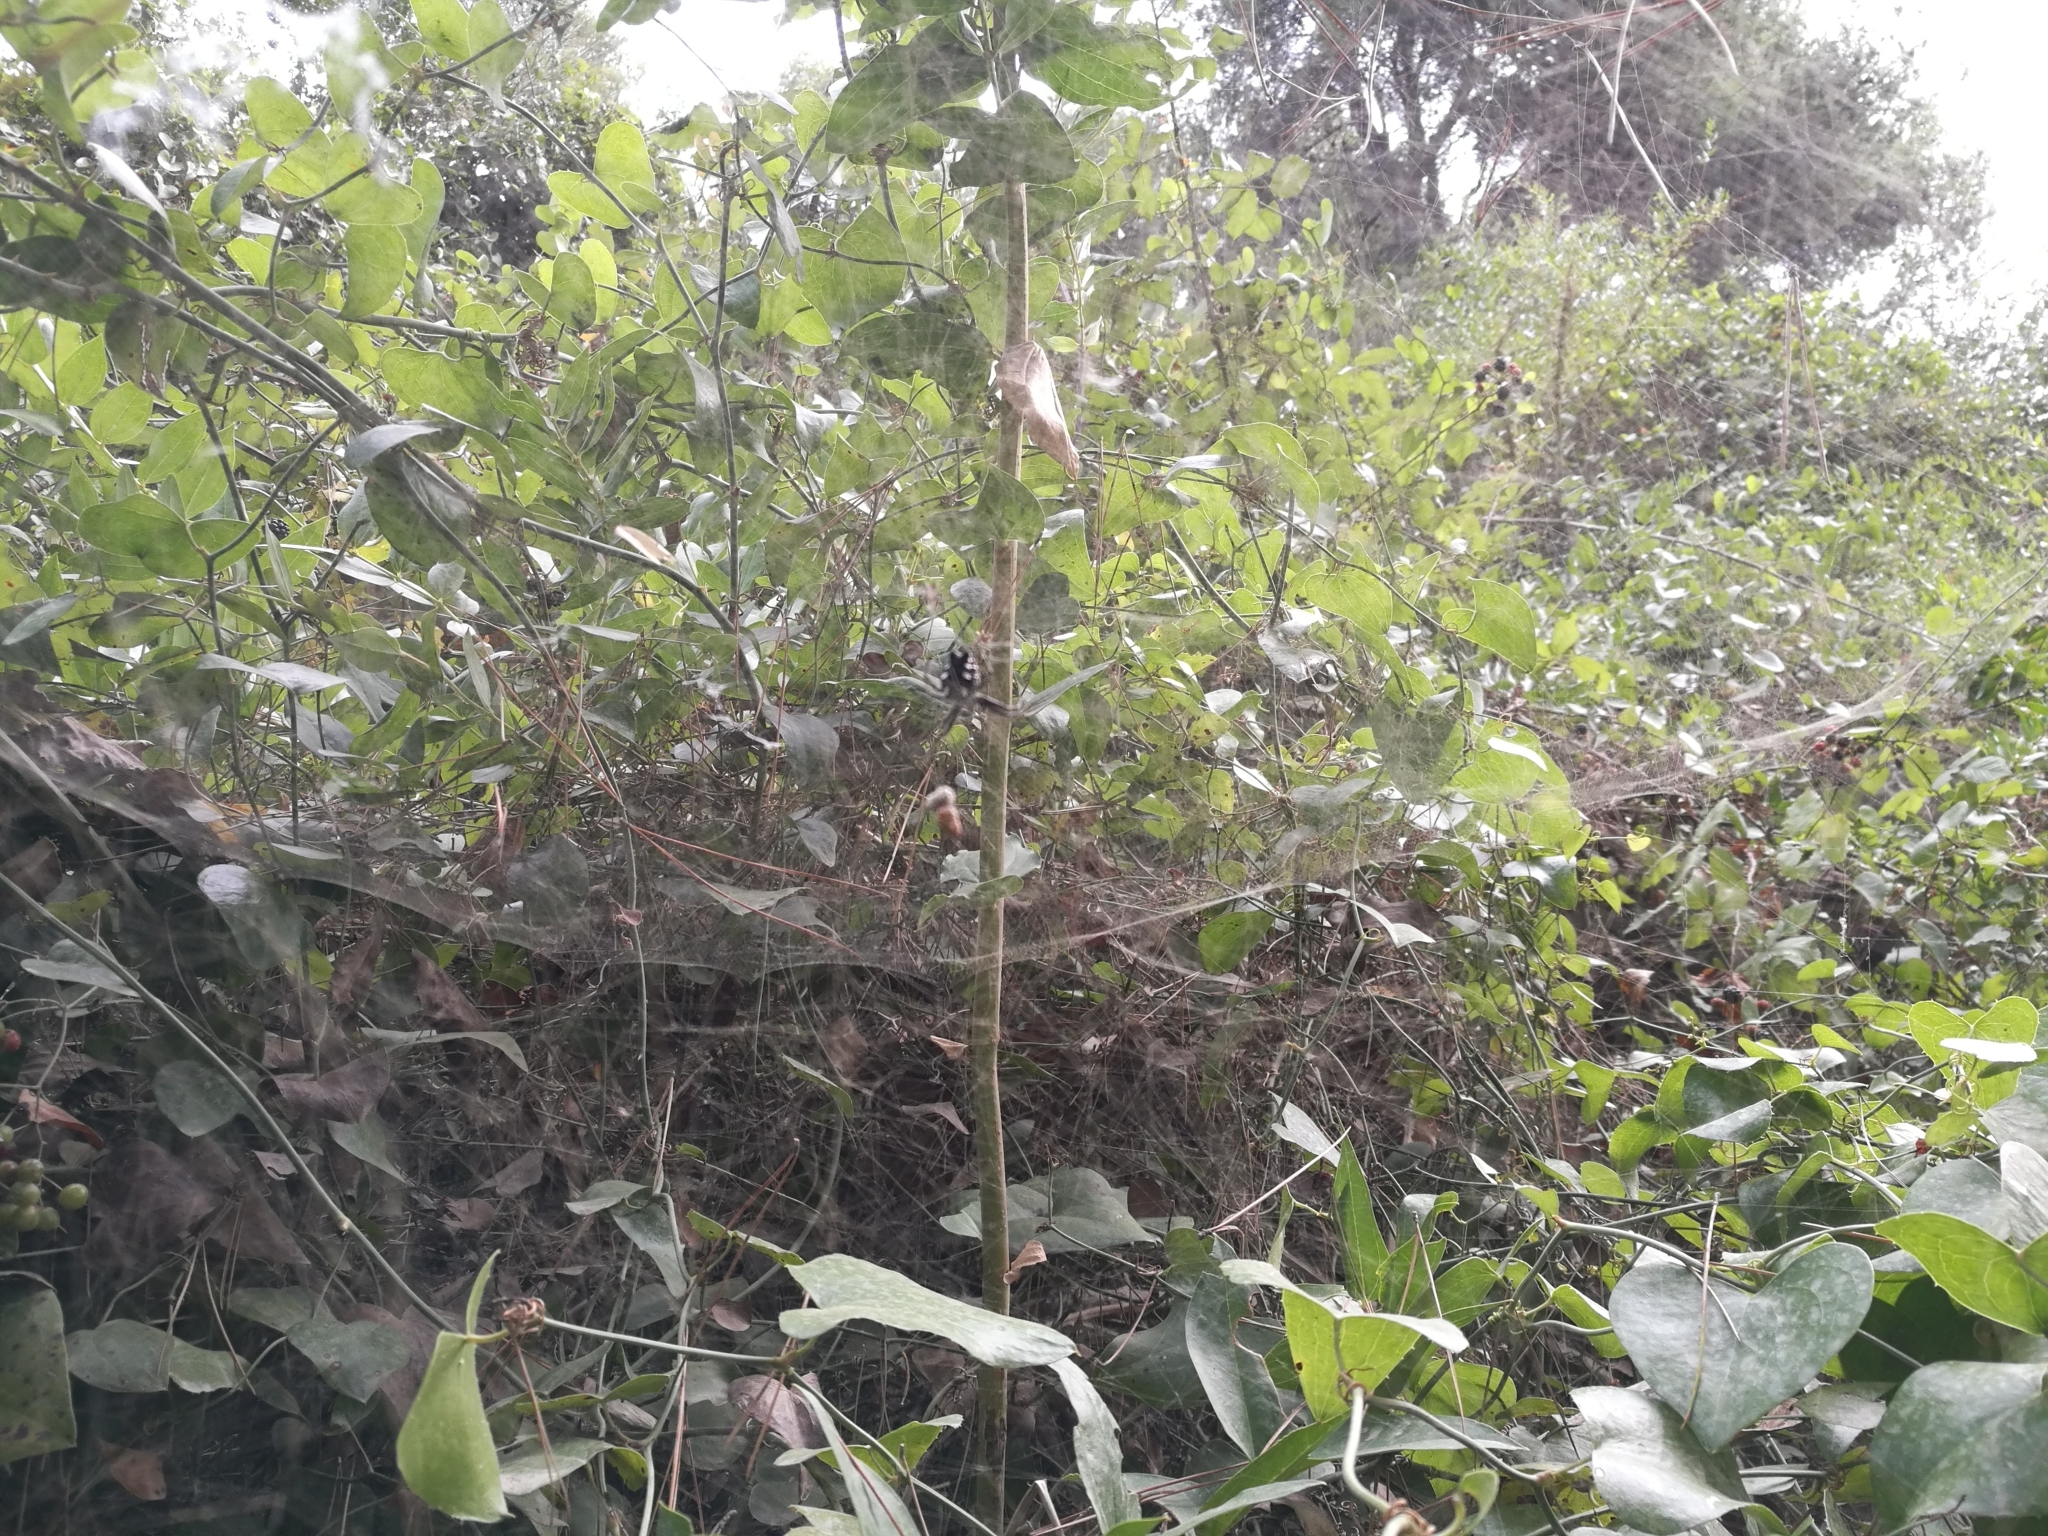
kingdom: Animalia
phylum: Arthropoda
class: Arachnida
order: Araneae
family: Araneidae
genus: Cyrtophora
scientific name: Cyrtophora citricola
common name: Orb weavers
